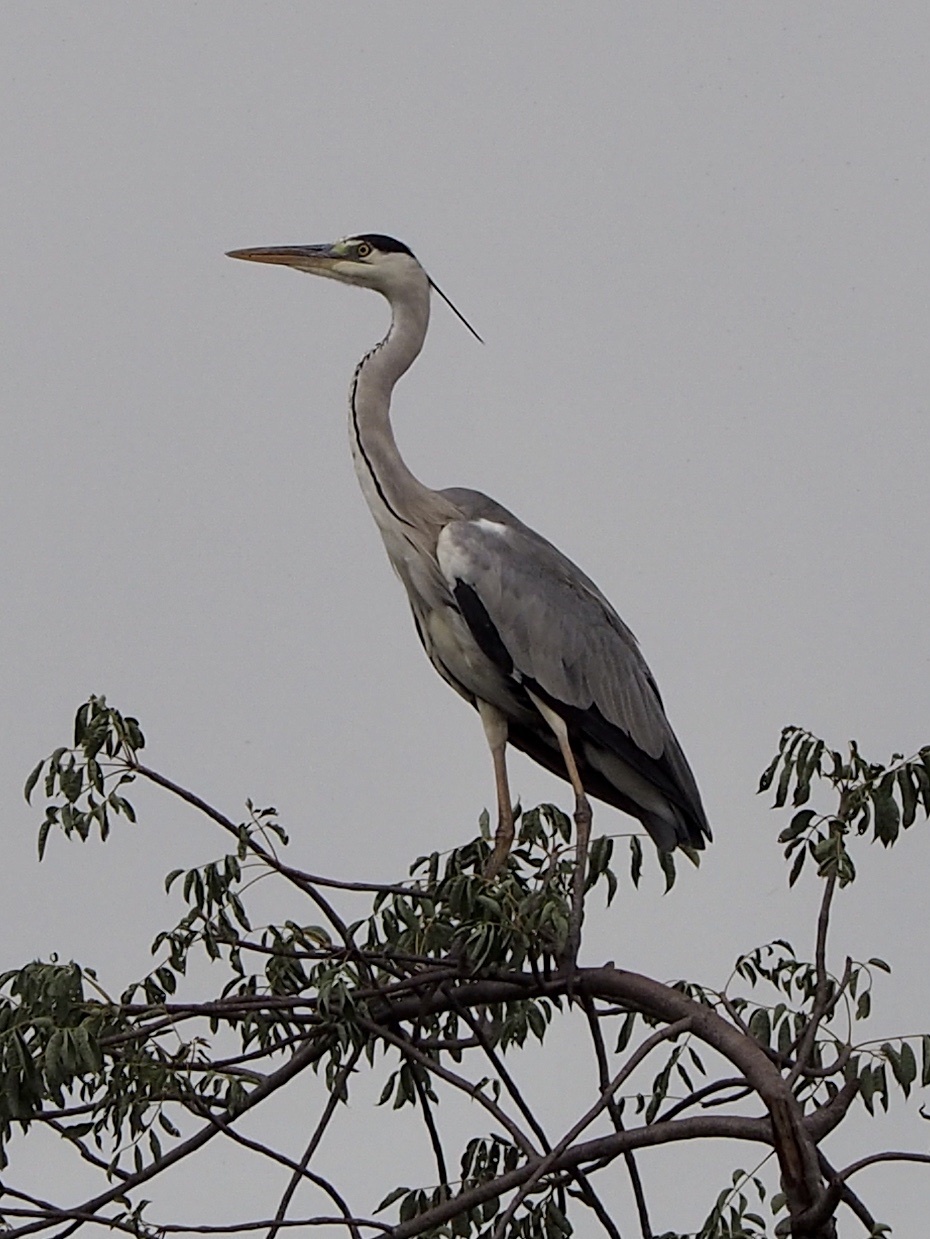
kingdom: Animalia
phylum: Chordata
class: Aves
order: Pelecaniformes
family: Ardeidae
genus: Ardea
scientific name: Ardea cinerea
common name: Grey heron
